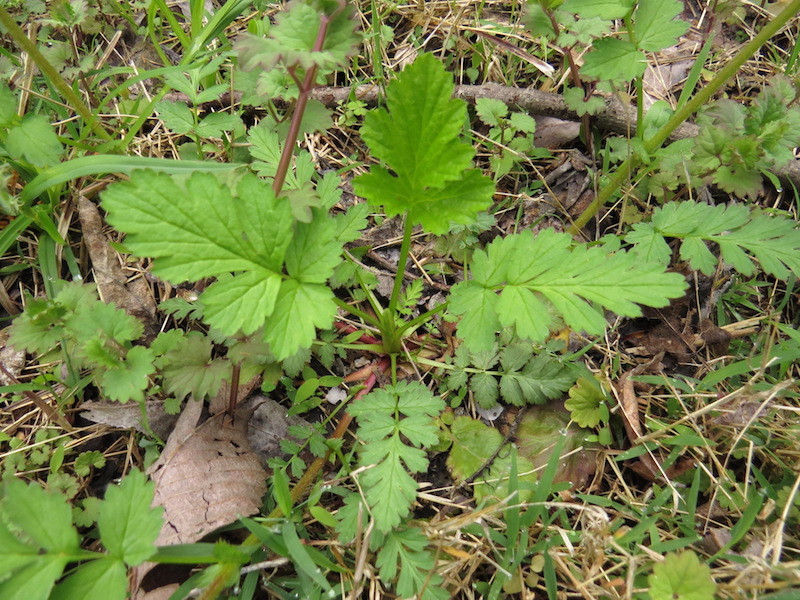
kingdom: Plantae
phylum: Tracheophyta
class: Magnoliopsida
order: Rosales
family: Rosaceae
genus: Geum
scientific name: Geum vernum
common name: Spring avens
